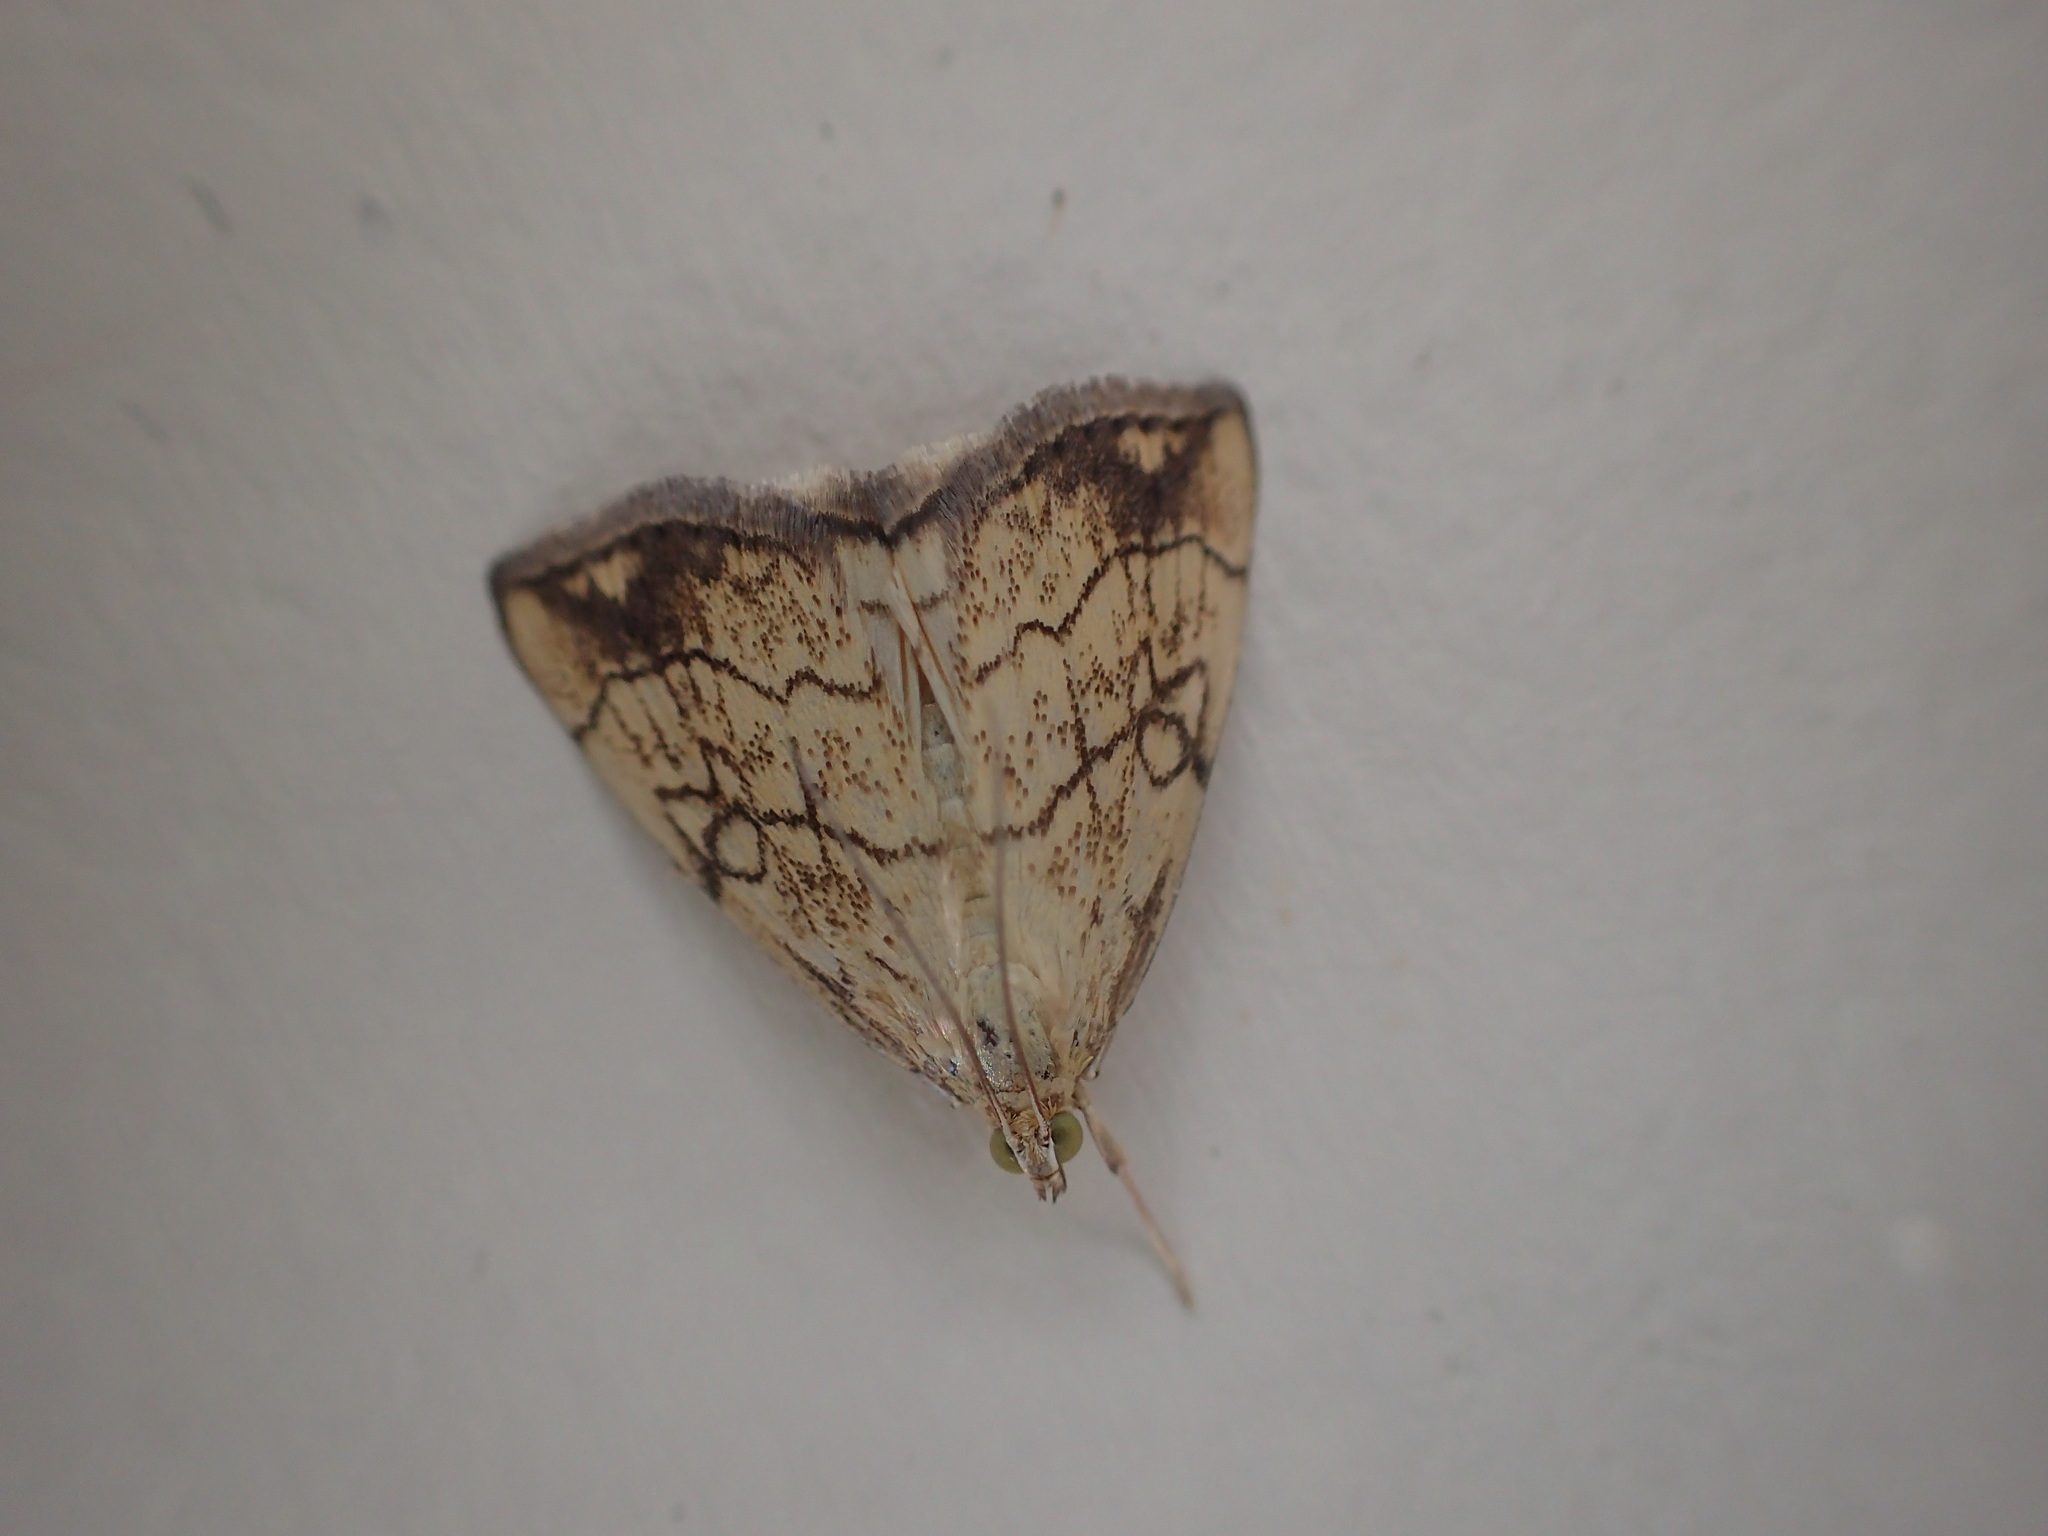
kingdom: Animalia
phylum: Arthropoda
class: Insecta
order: Lepidoptera
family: Crambidae
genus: Evergestis
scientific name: Evergestis pallidata
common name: Chequered pearl
